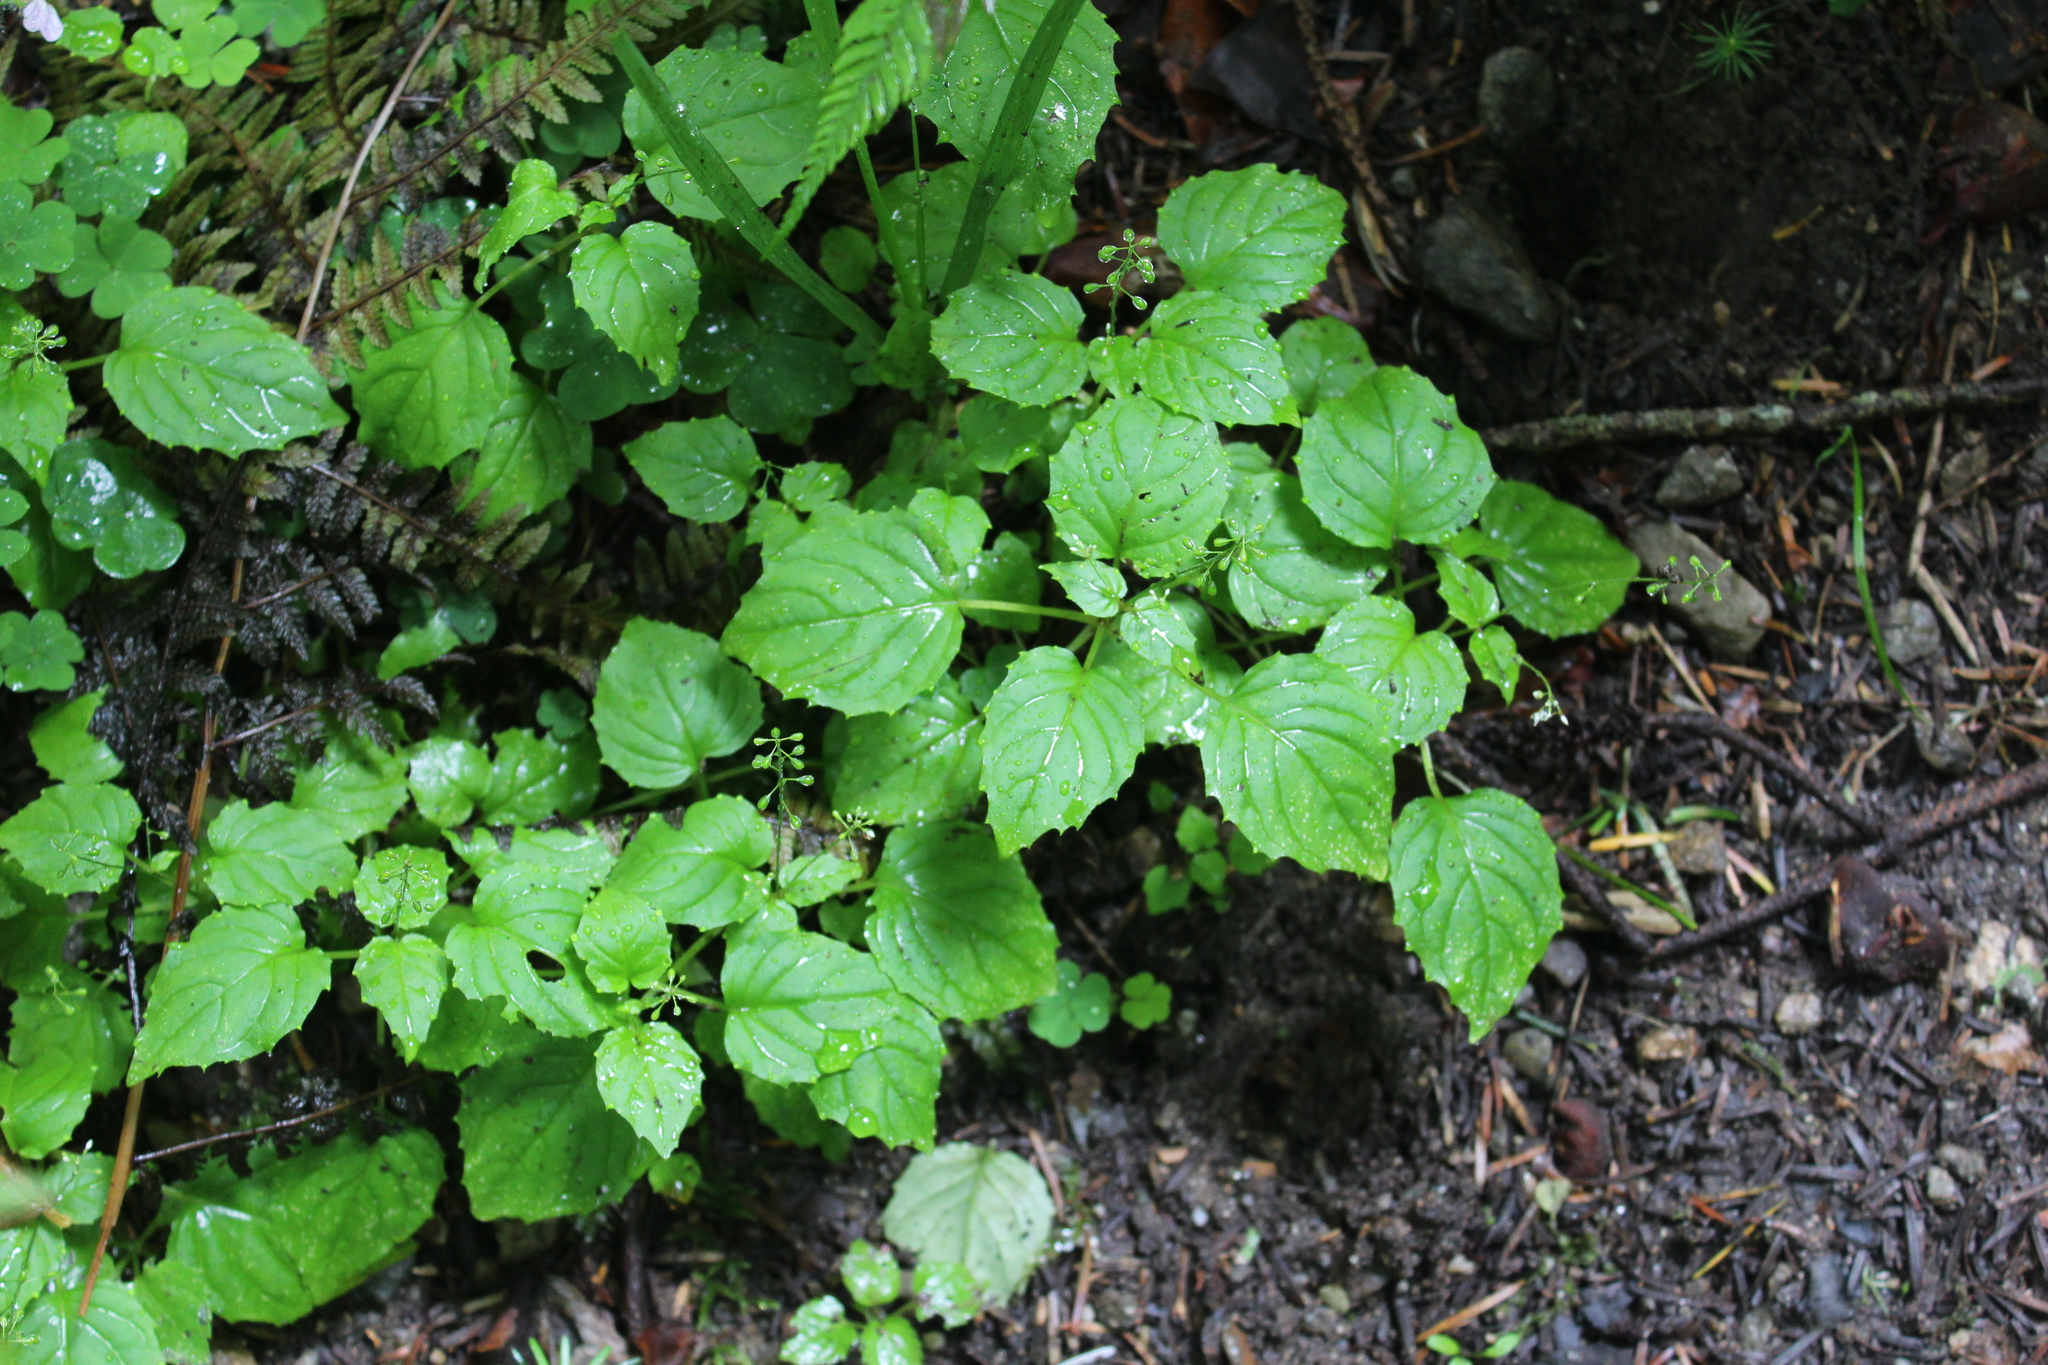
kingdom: Plantae
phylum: Tracheophyta
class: Magnoliopsida
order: Myrtales
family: Onagraceae
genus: Circaea
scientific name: Circaea alpina
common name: Alpine enchanter's-nightshade
